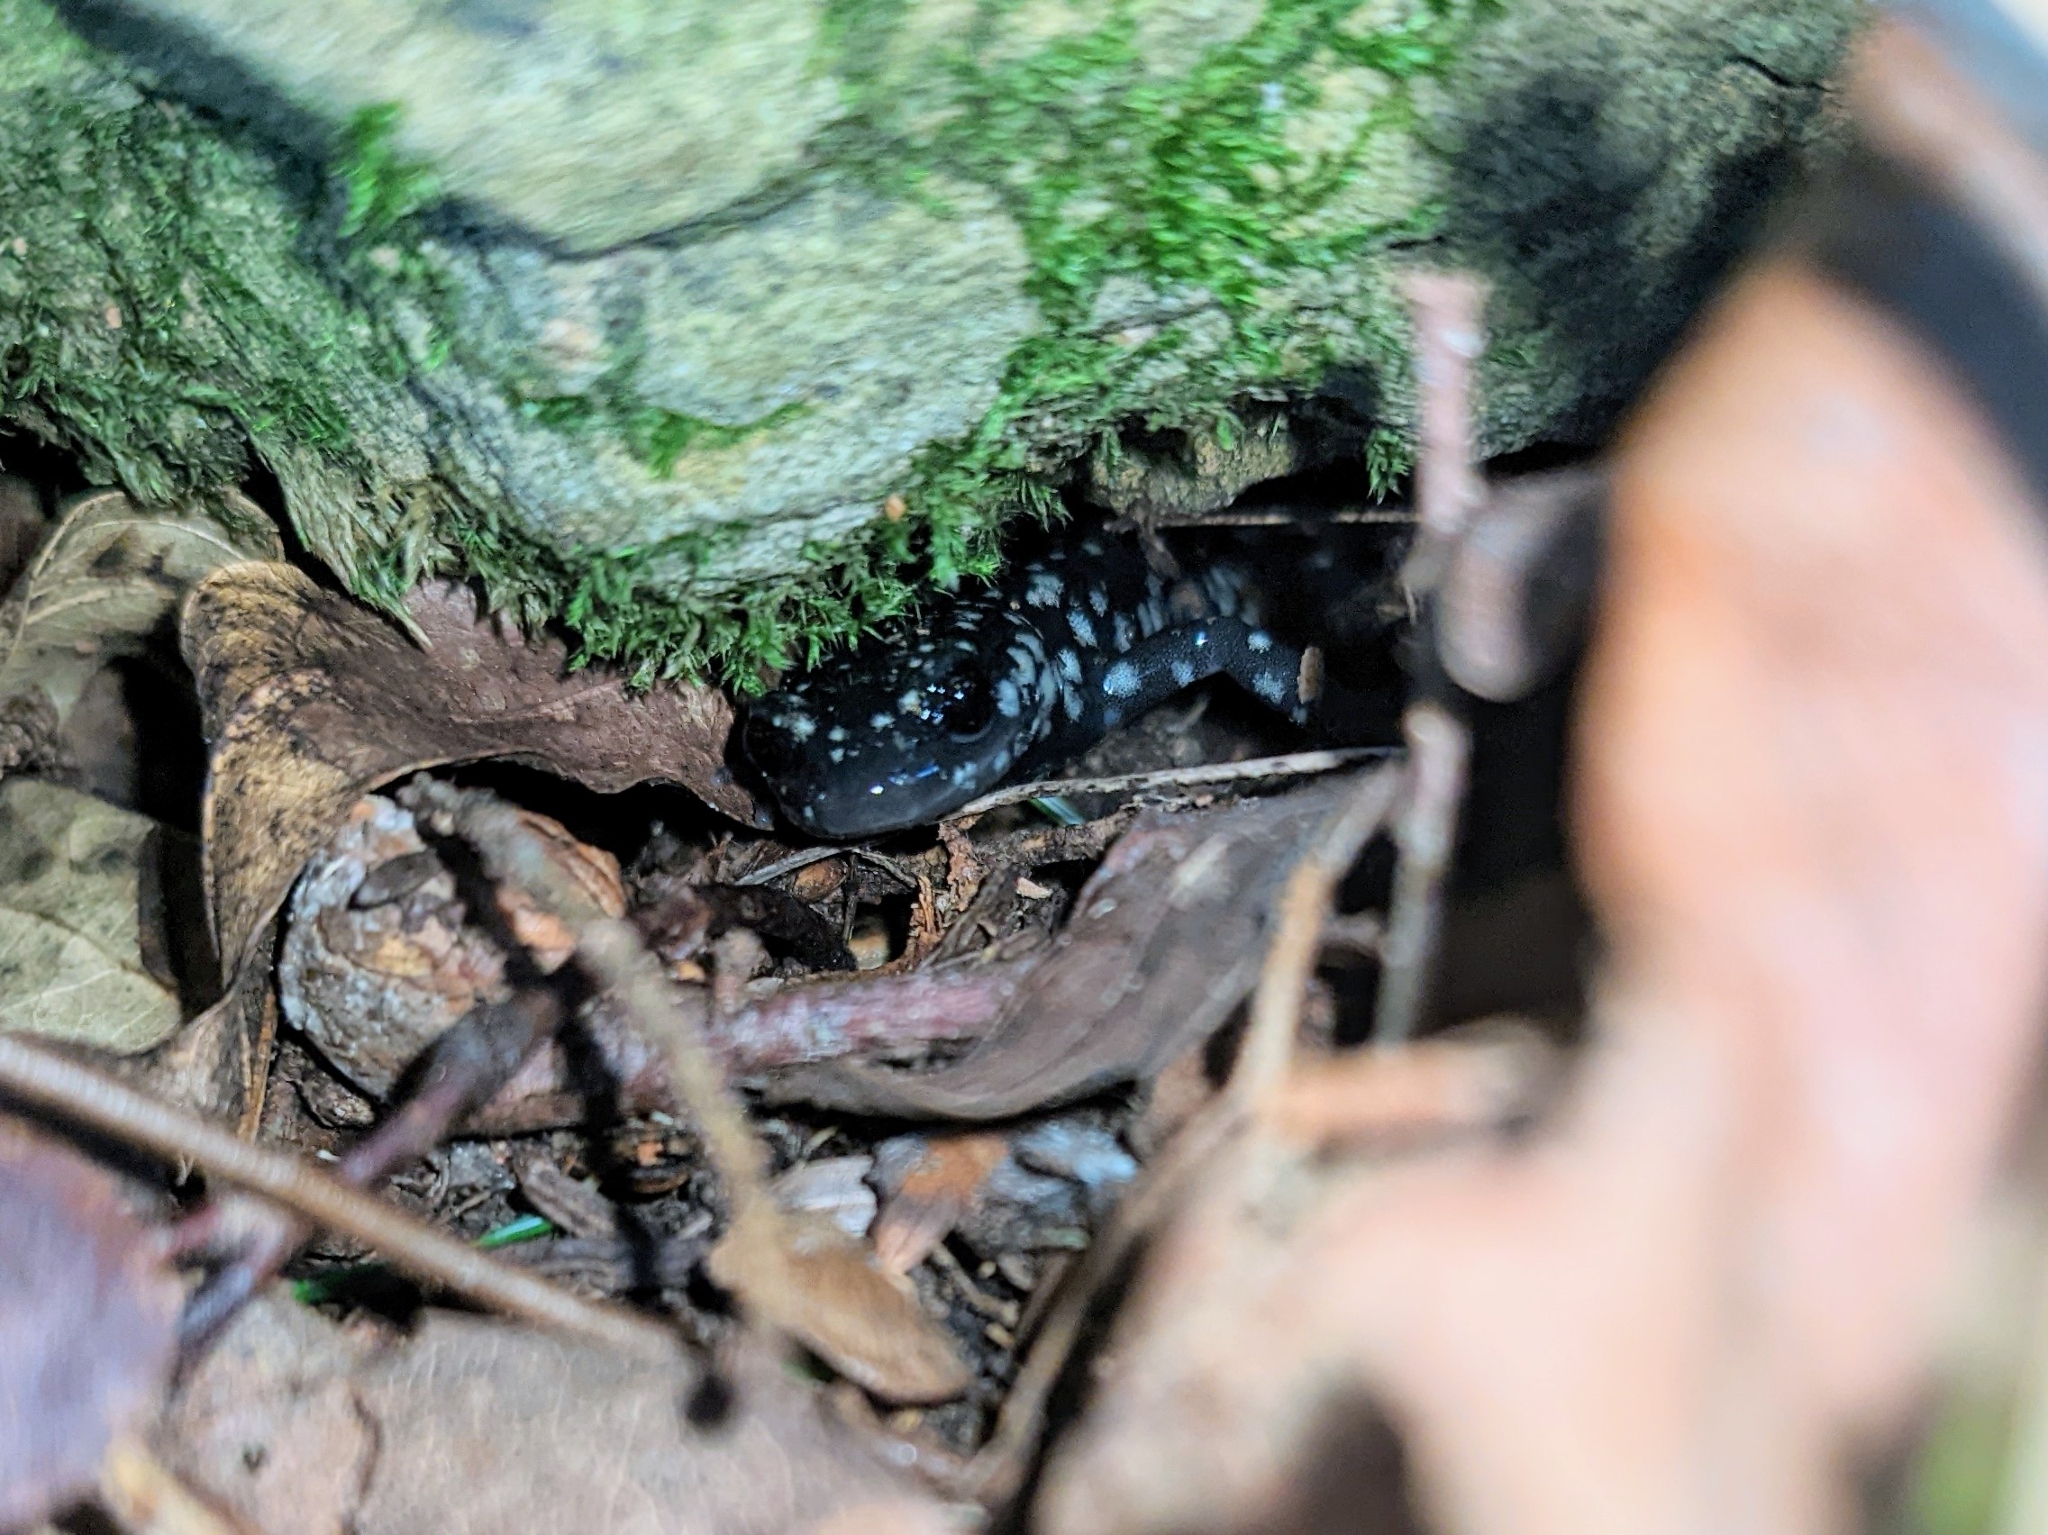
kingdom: Animalia
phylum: Chordata
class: Amphibia
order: Caudata
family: Plethodontidae
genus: Plethodon
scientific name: Plethodon glutinosus
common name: Northern slimy salamander
